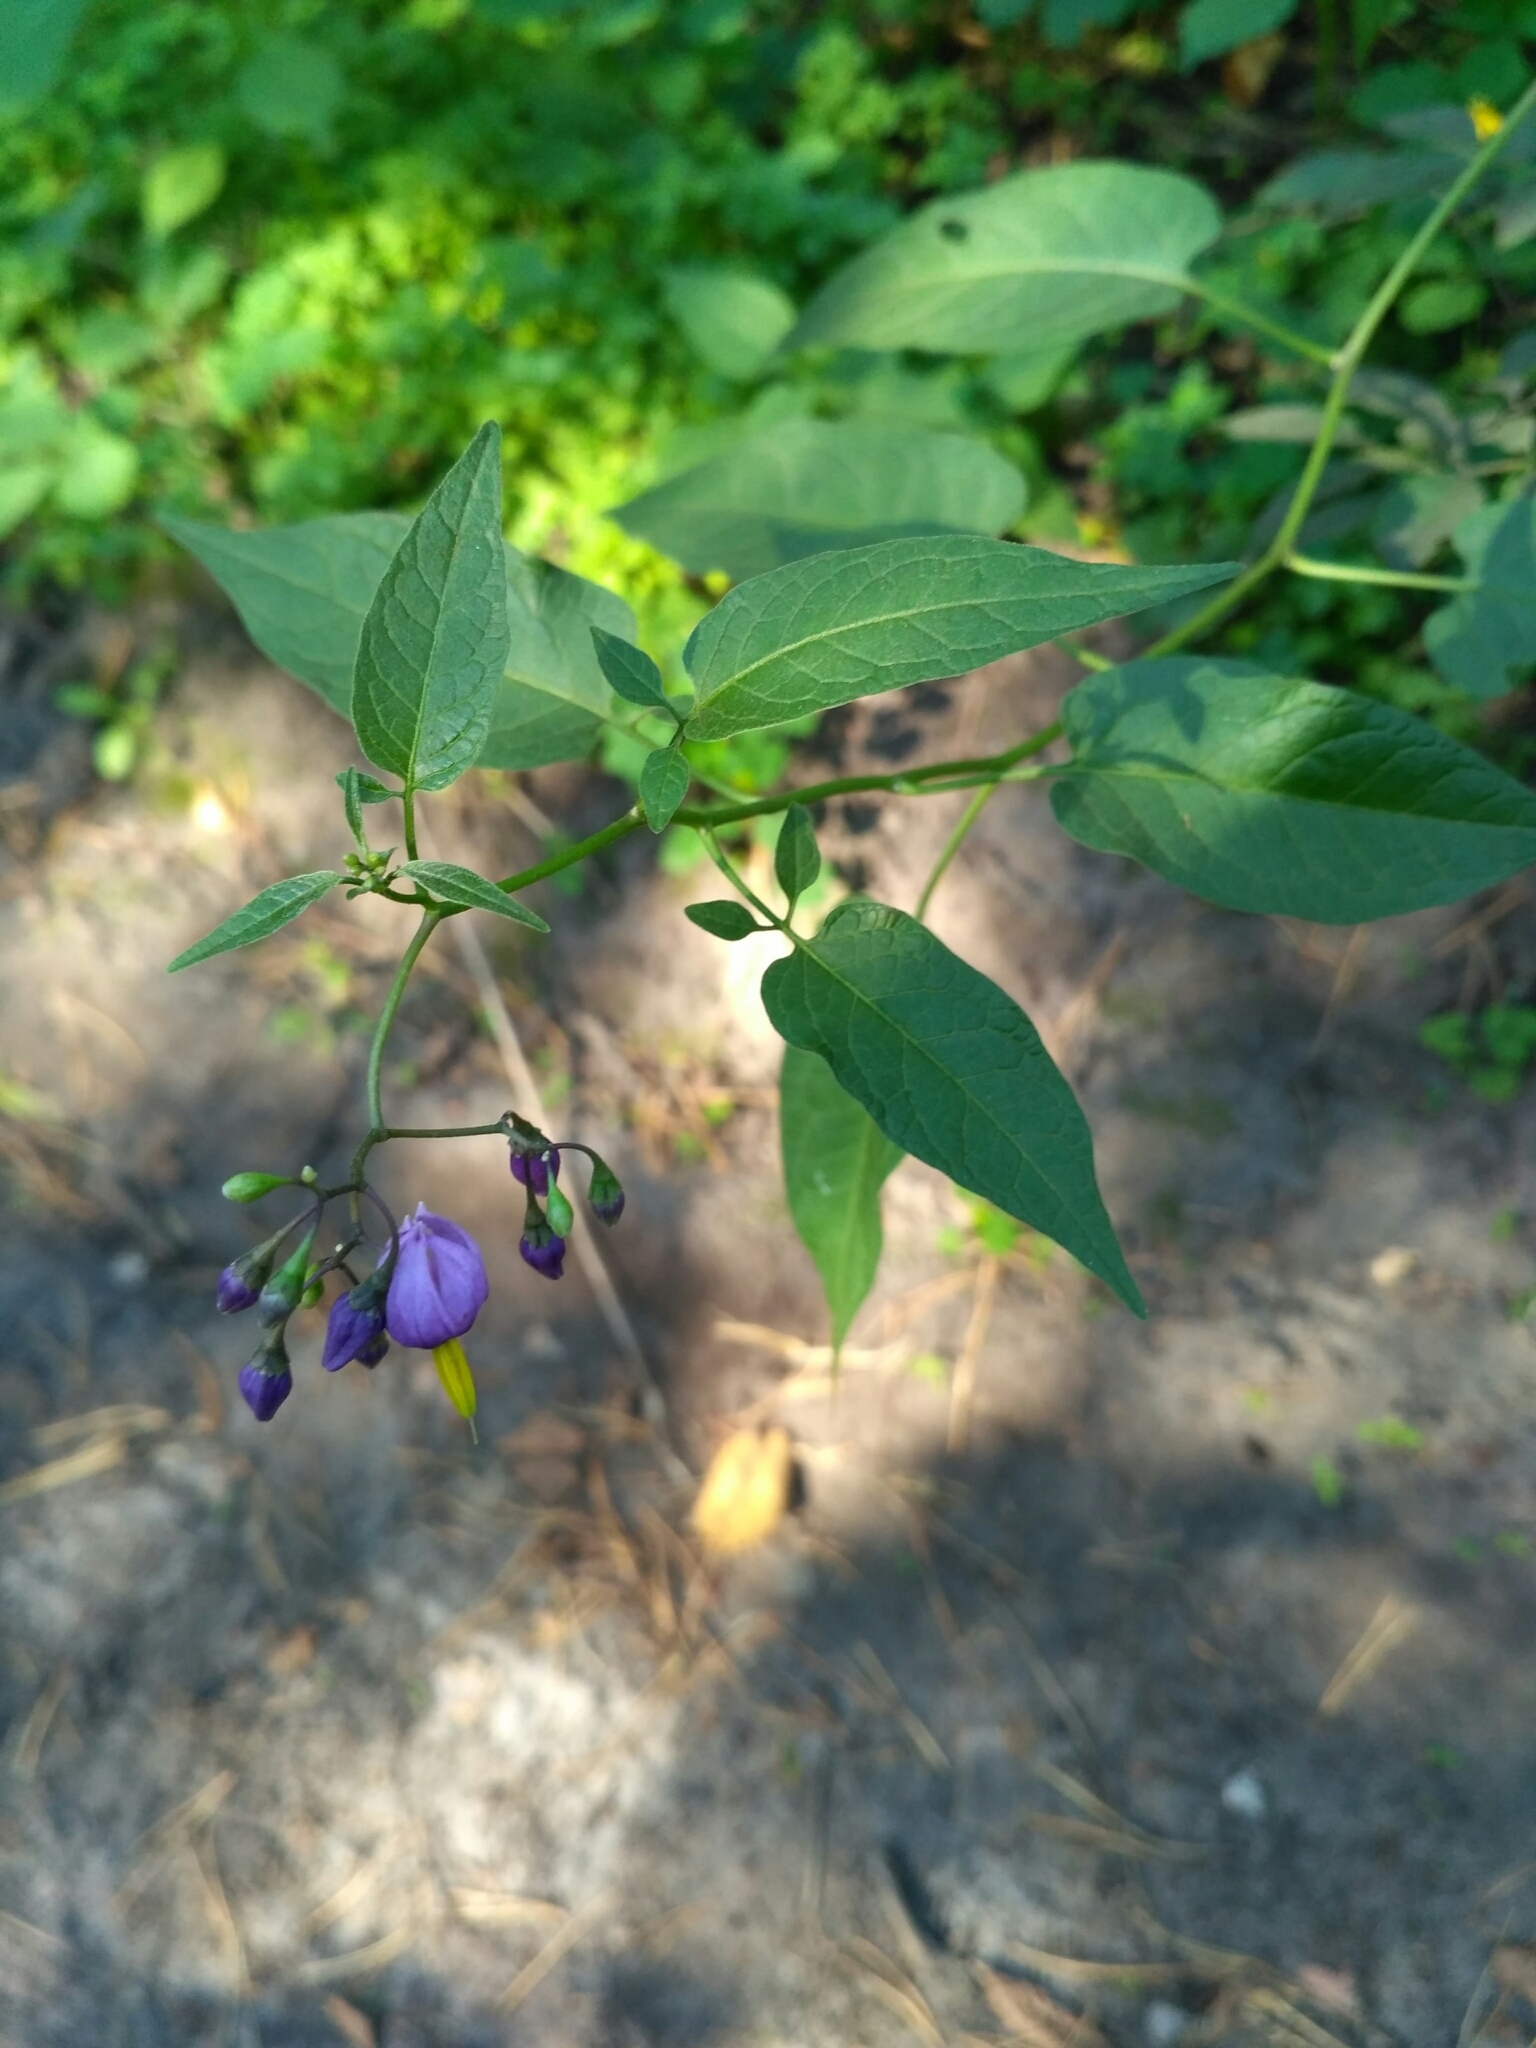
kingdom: Plantae
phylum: Tracheophyta
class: Magnoliopsida
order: Solanales
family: Solanaceae
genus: Solanum
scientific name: Solanum dulcamara
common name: Climbing nightshade
